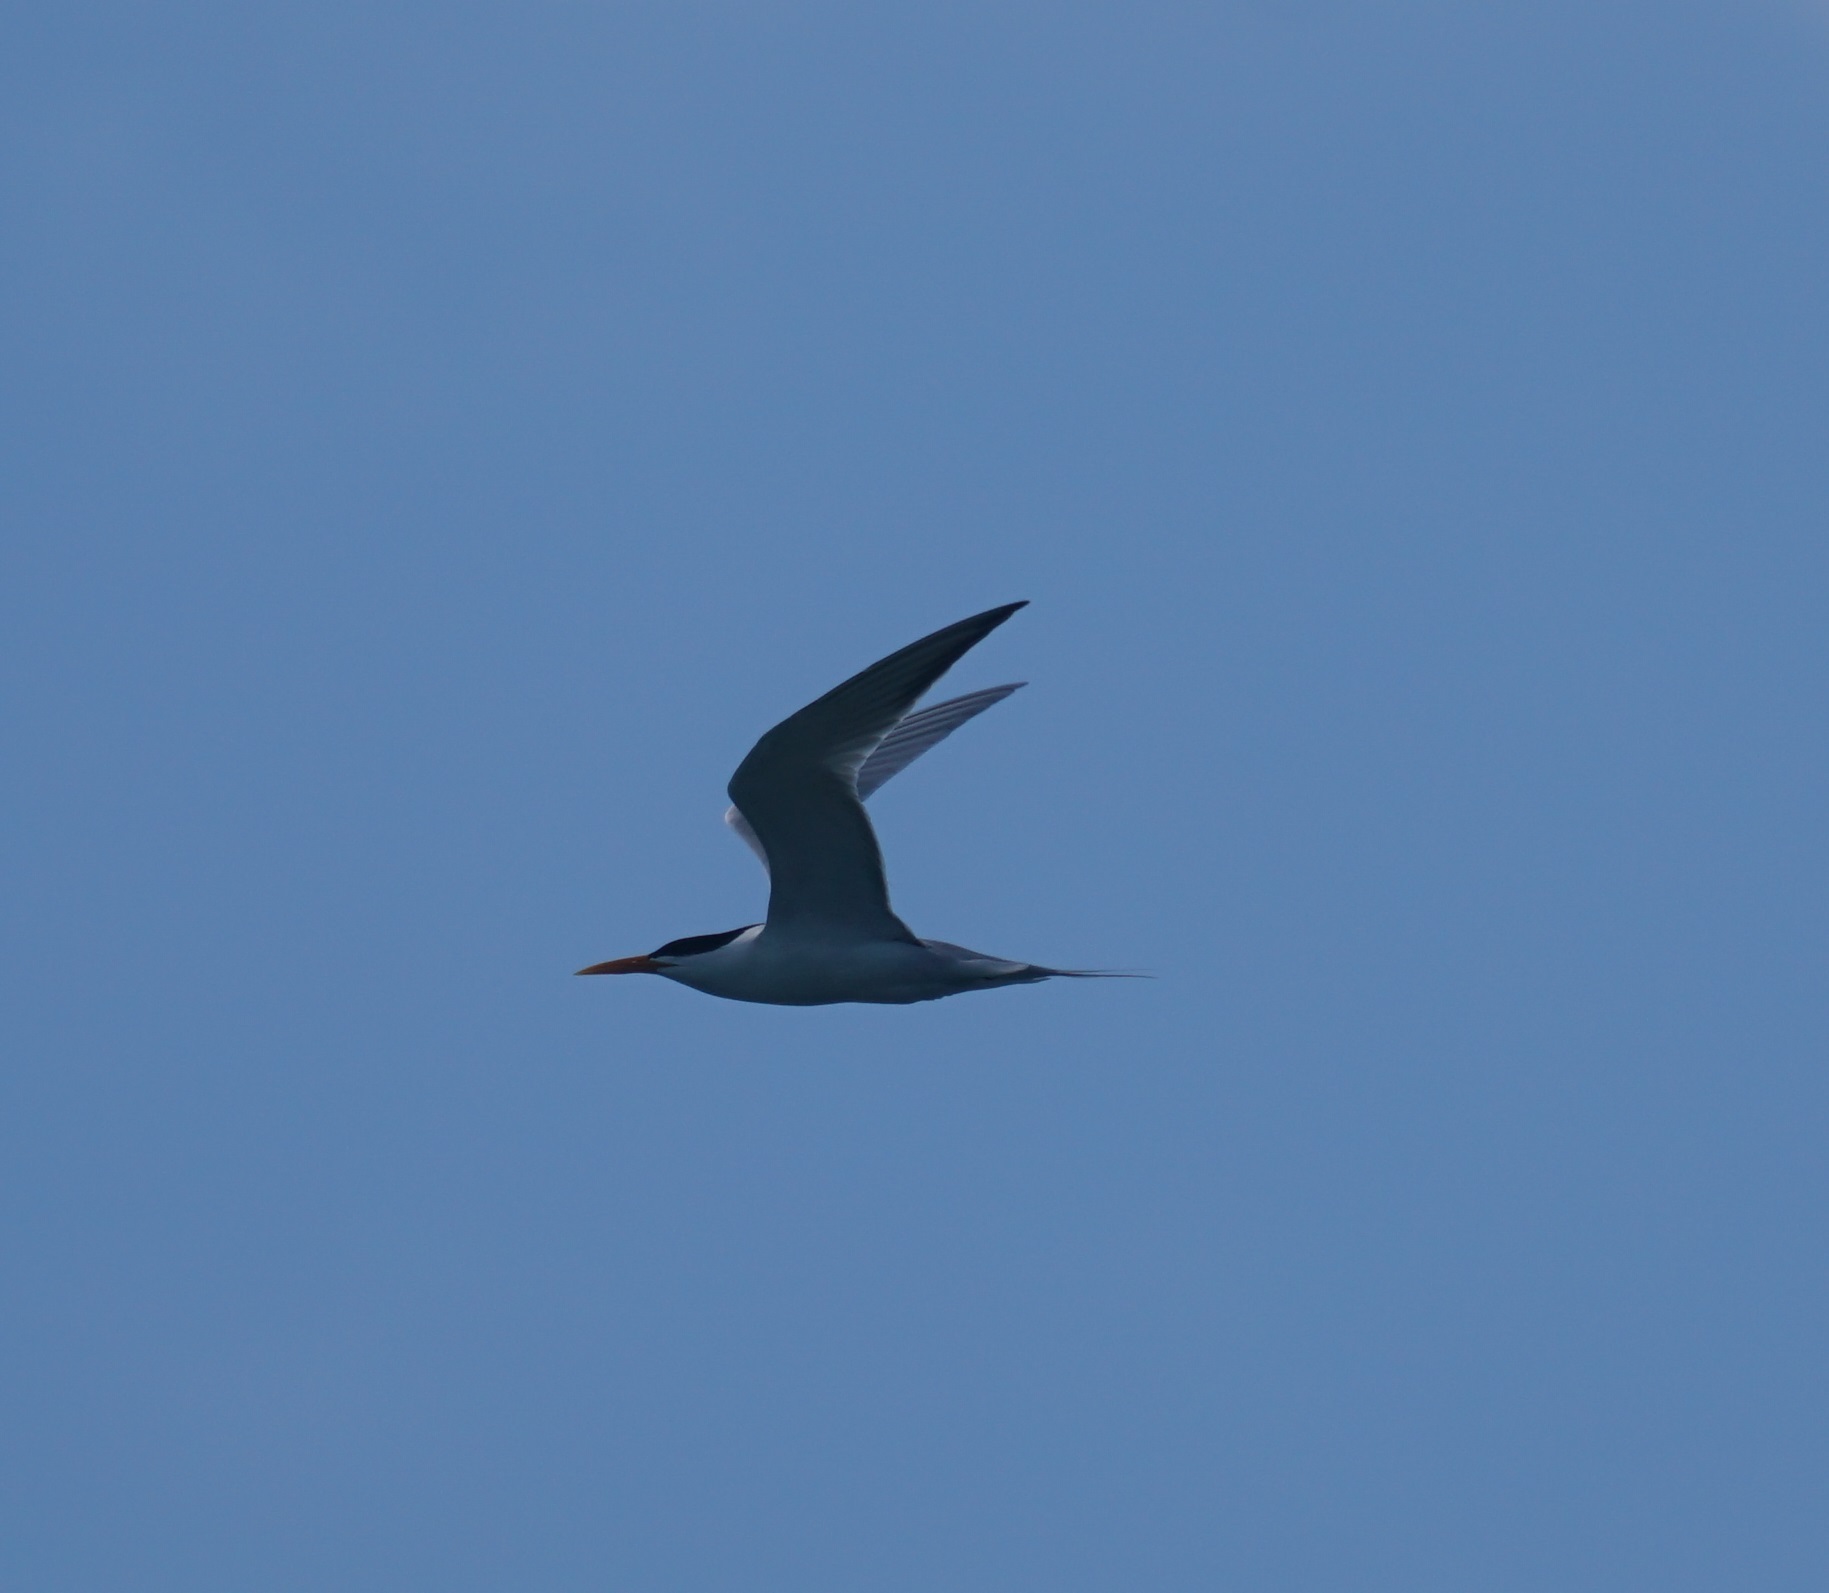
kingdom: Animalia
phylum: Chordata
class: Aves
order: Charadriiformes
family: Laridae
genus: Thalasseus
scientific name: Thalasseus bengalensis
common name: Lesser crested tern
